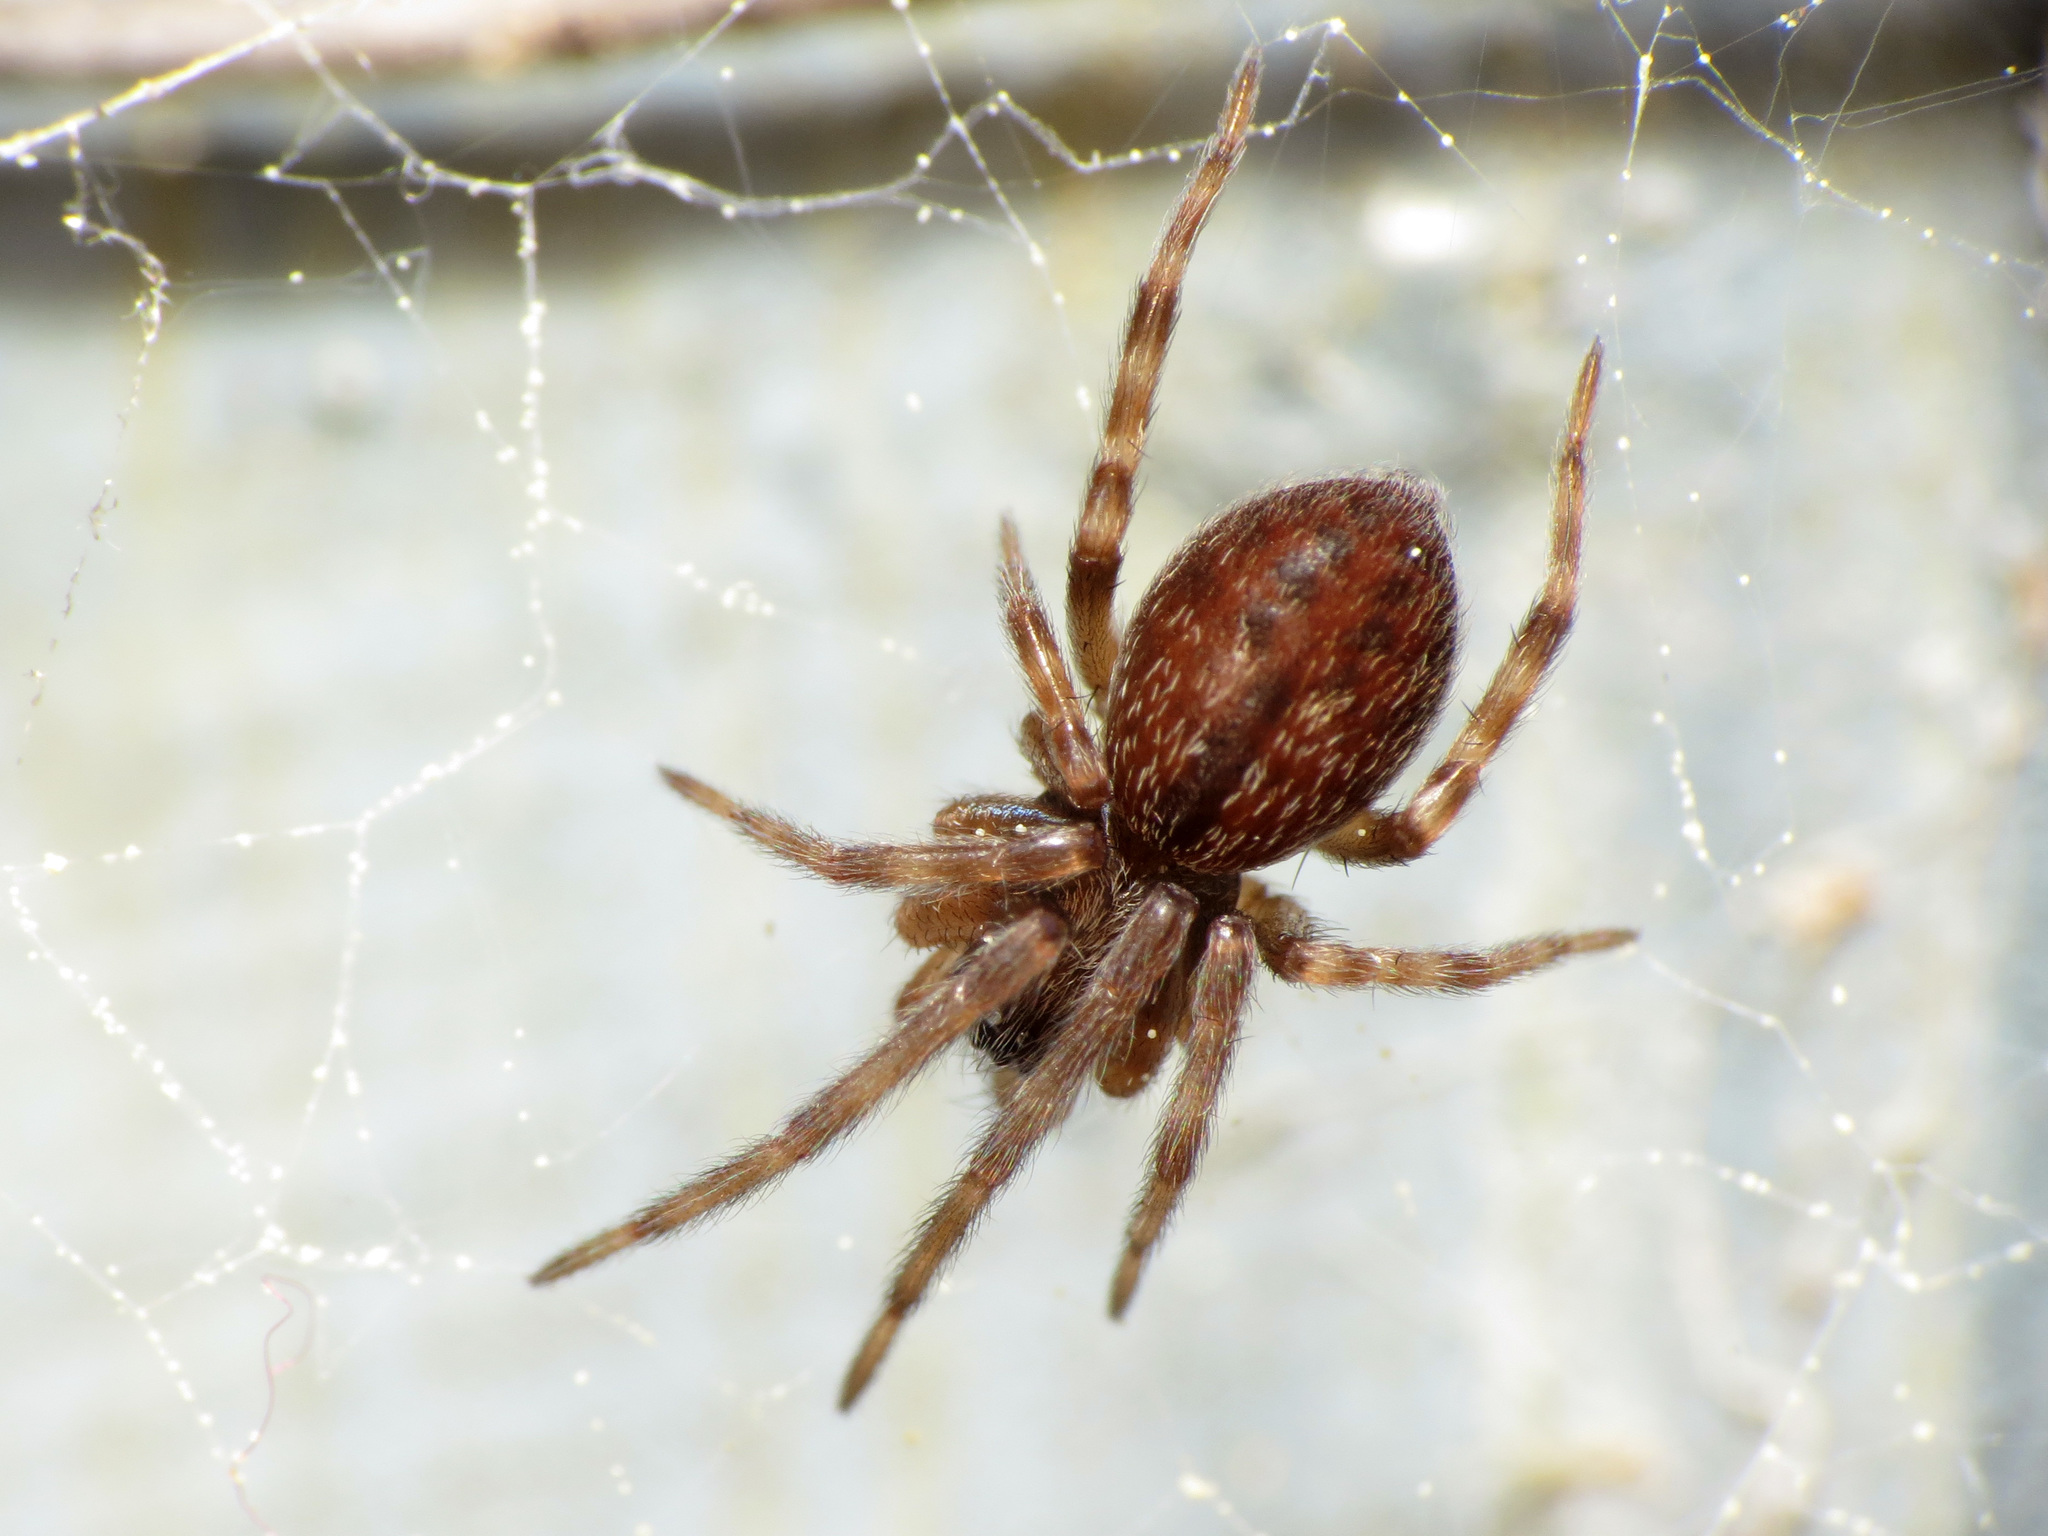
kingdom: Animalia
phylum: Arthropoda
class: Arachnida
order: Araneae
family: Desidae
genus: Badumna
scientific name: Badumna longinqua
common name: Gray house spider
